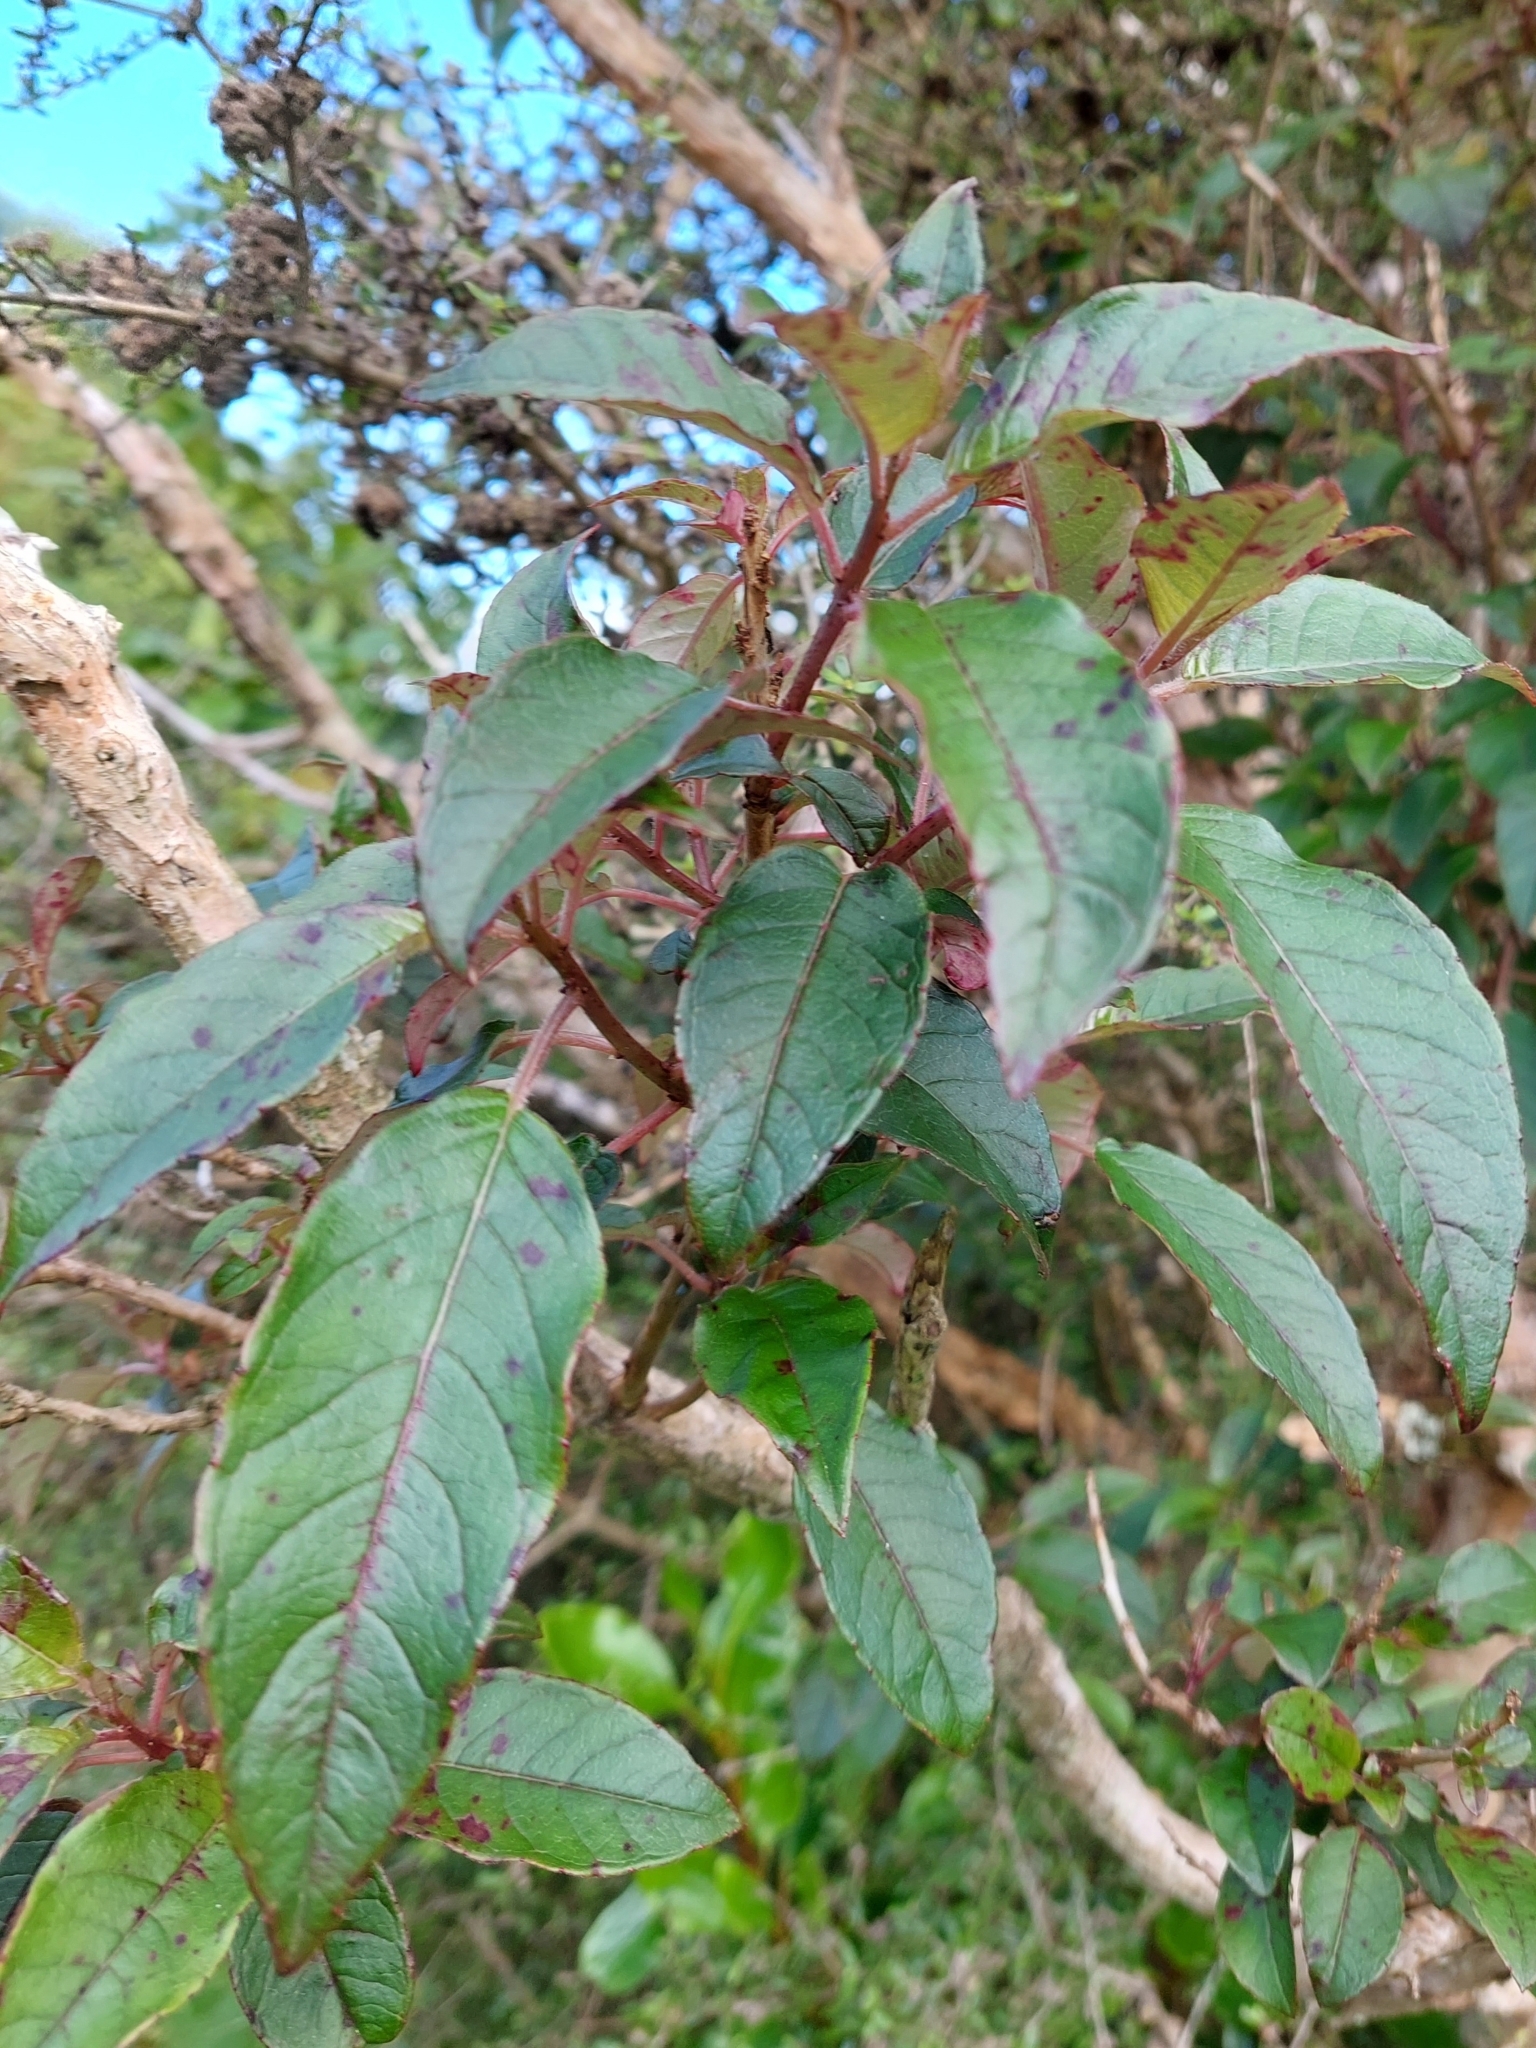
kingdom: Plantae
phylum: Tracheophyta
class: Magnoliopsida
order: Myrtales
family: Onagraceae
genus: Fuchsia
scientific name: Fuchsia excorticata
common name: Tree fuchsia
